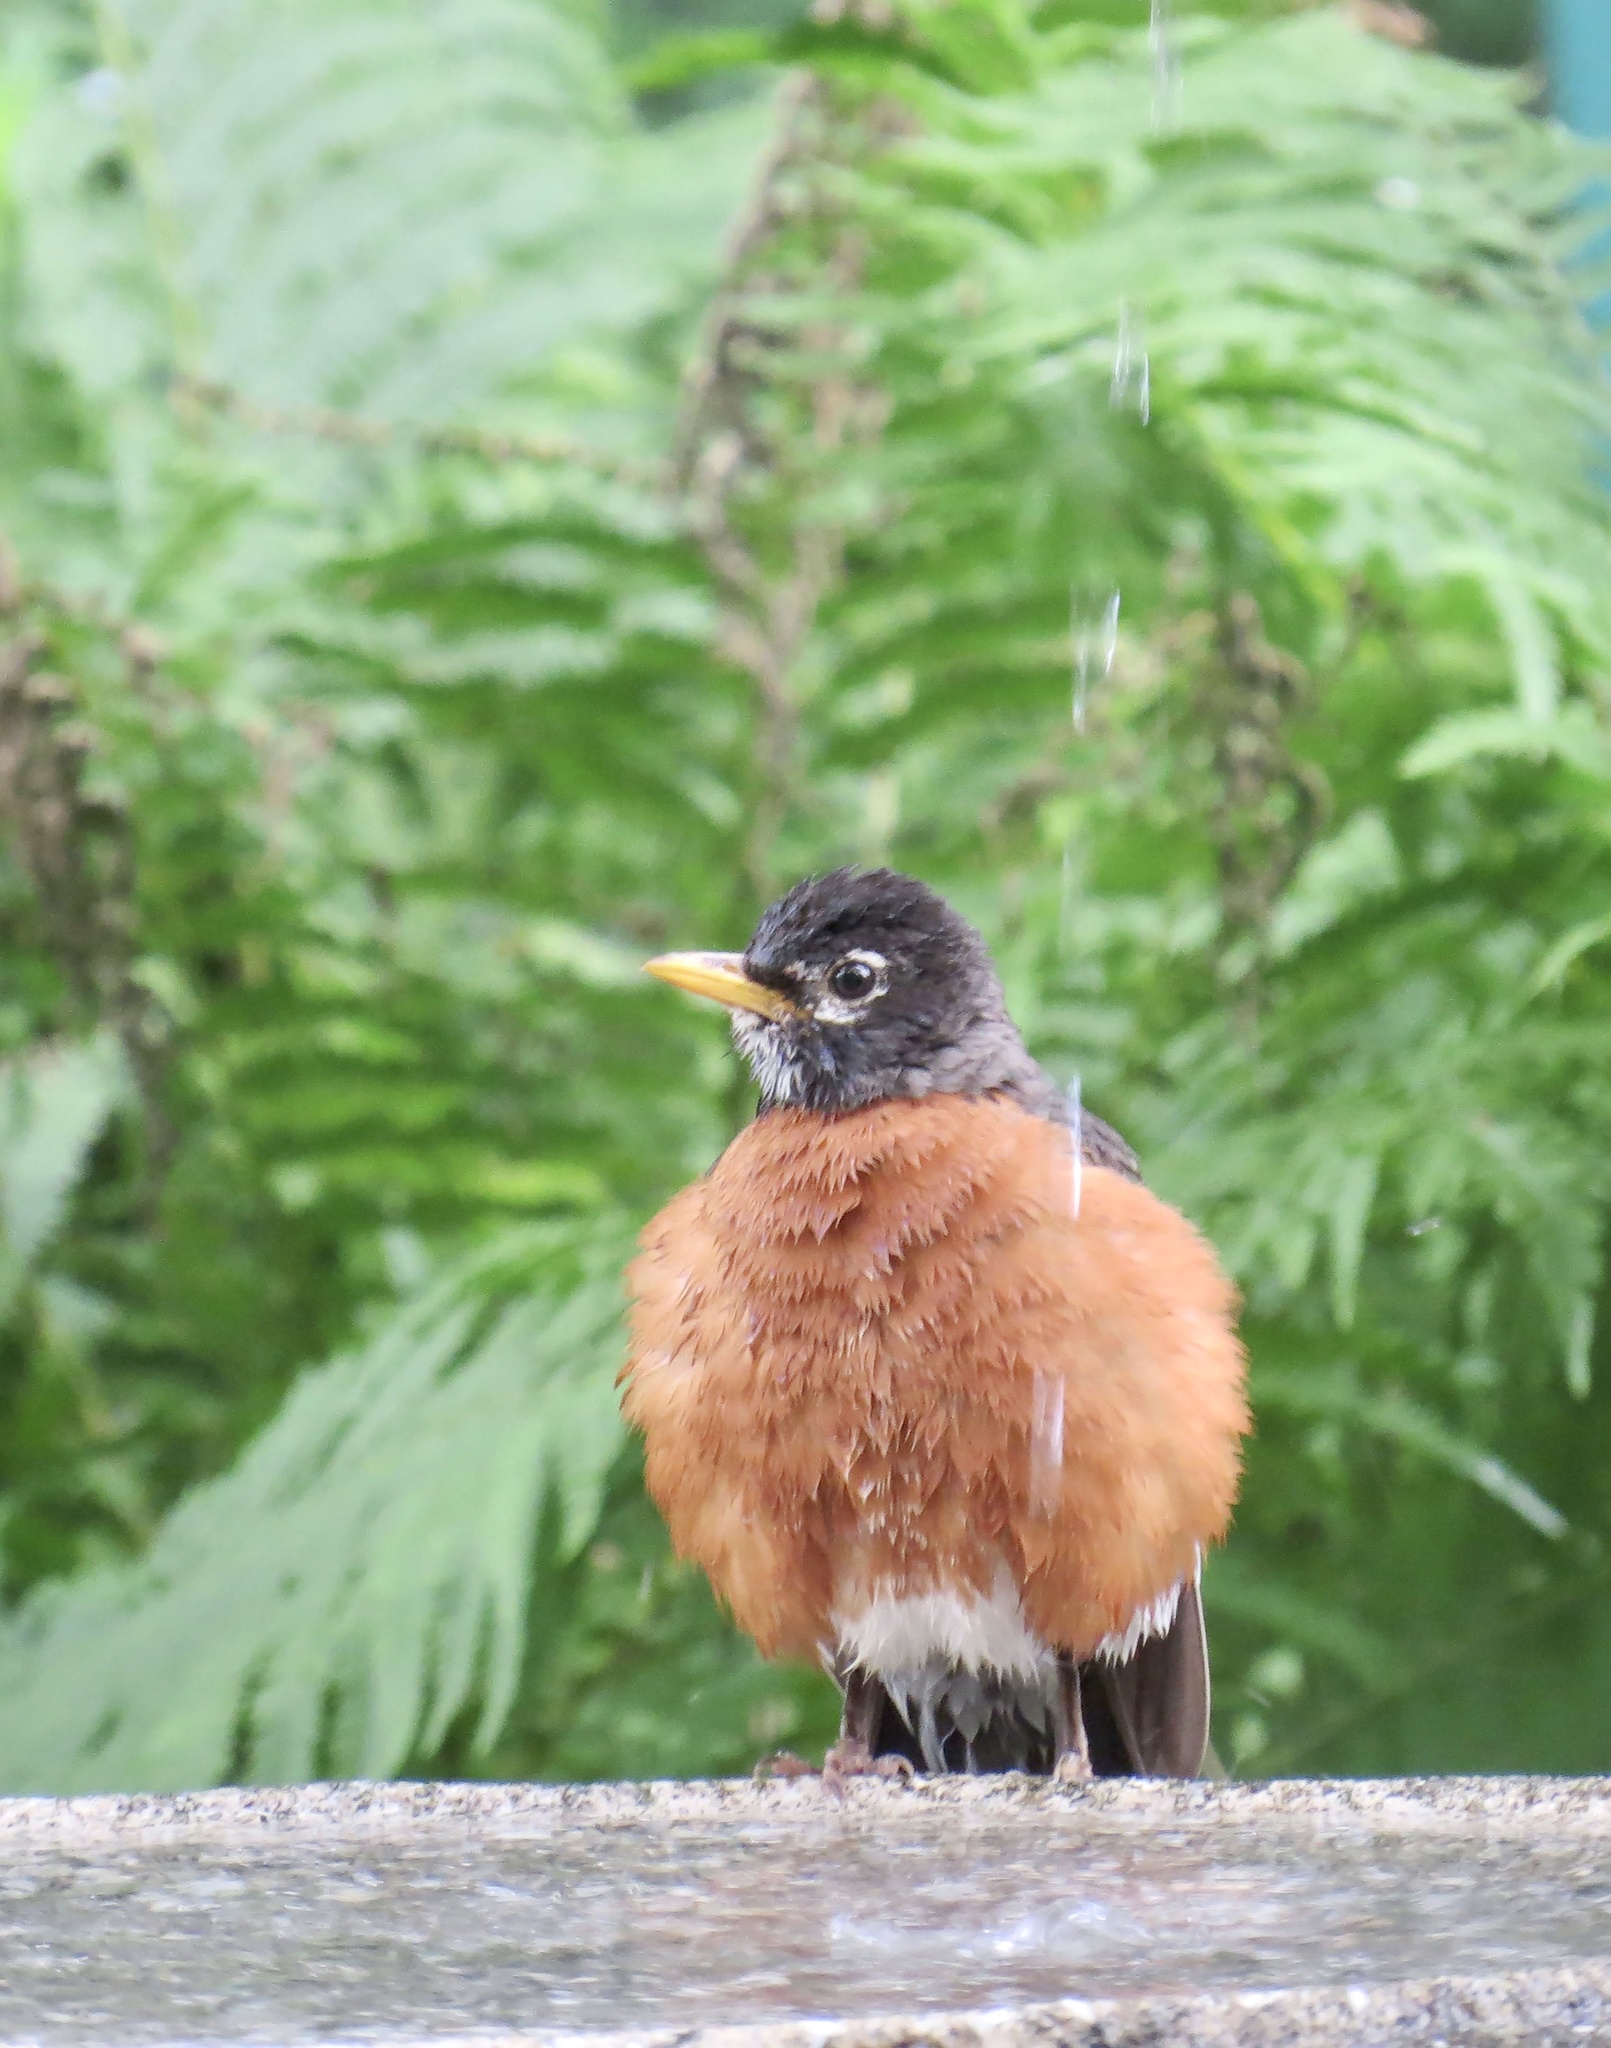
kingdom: Animalia
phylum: Chordata
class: Aves
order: Passeriformes
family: Turdidae
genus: Turdus
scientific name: Turdus migratorius
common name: American robin
